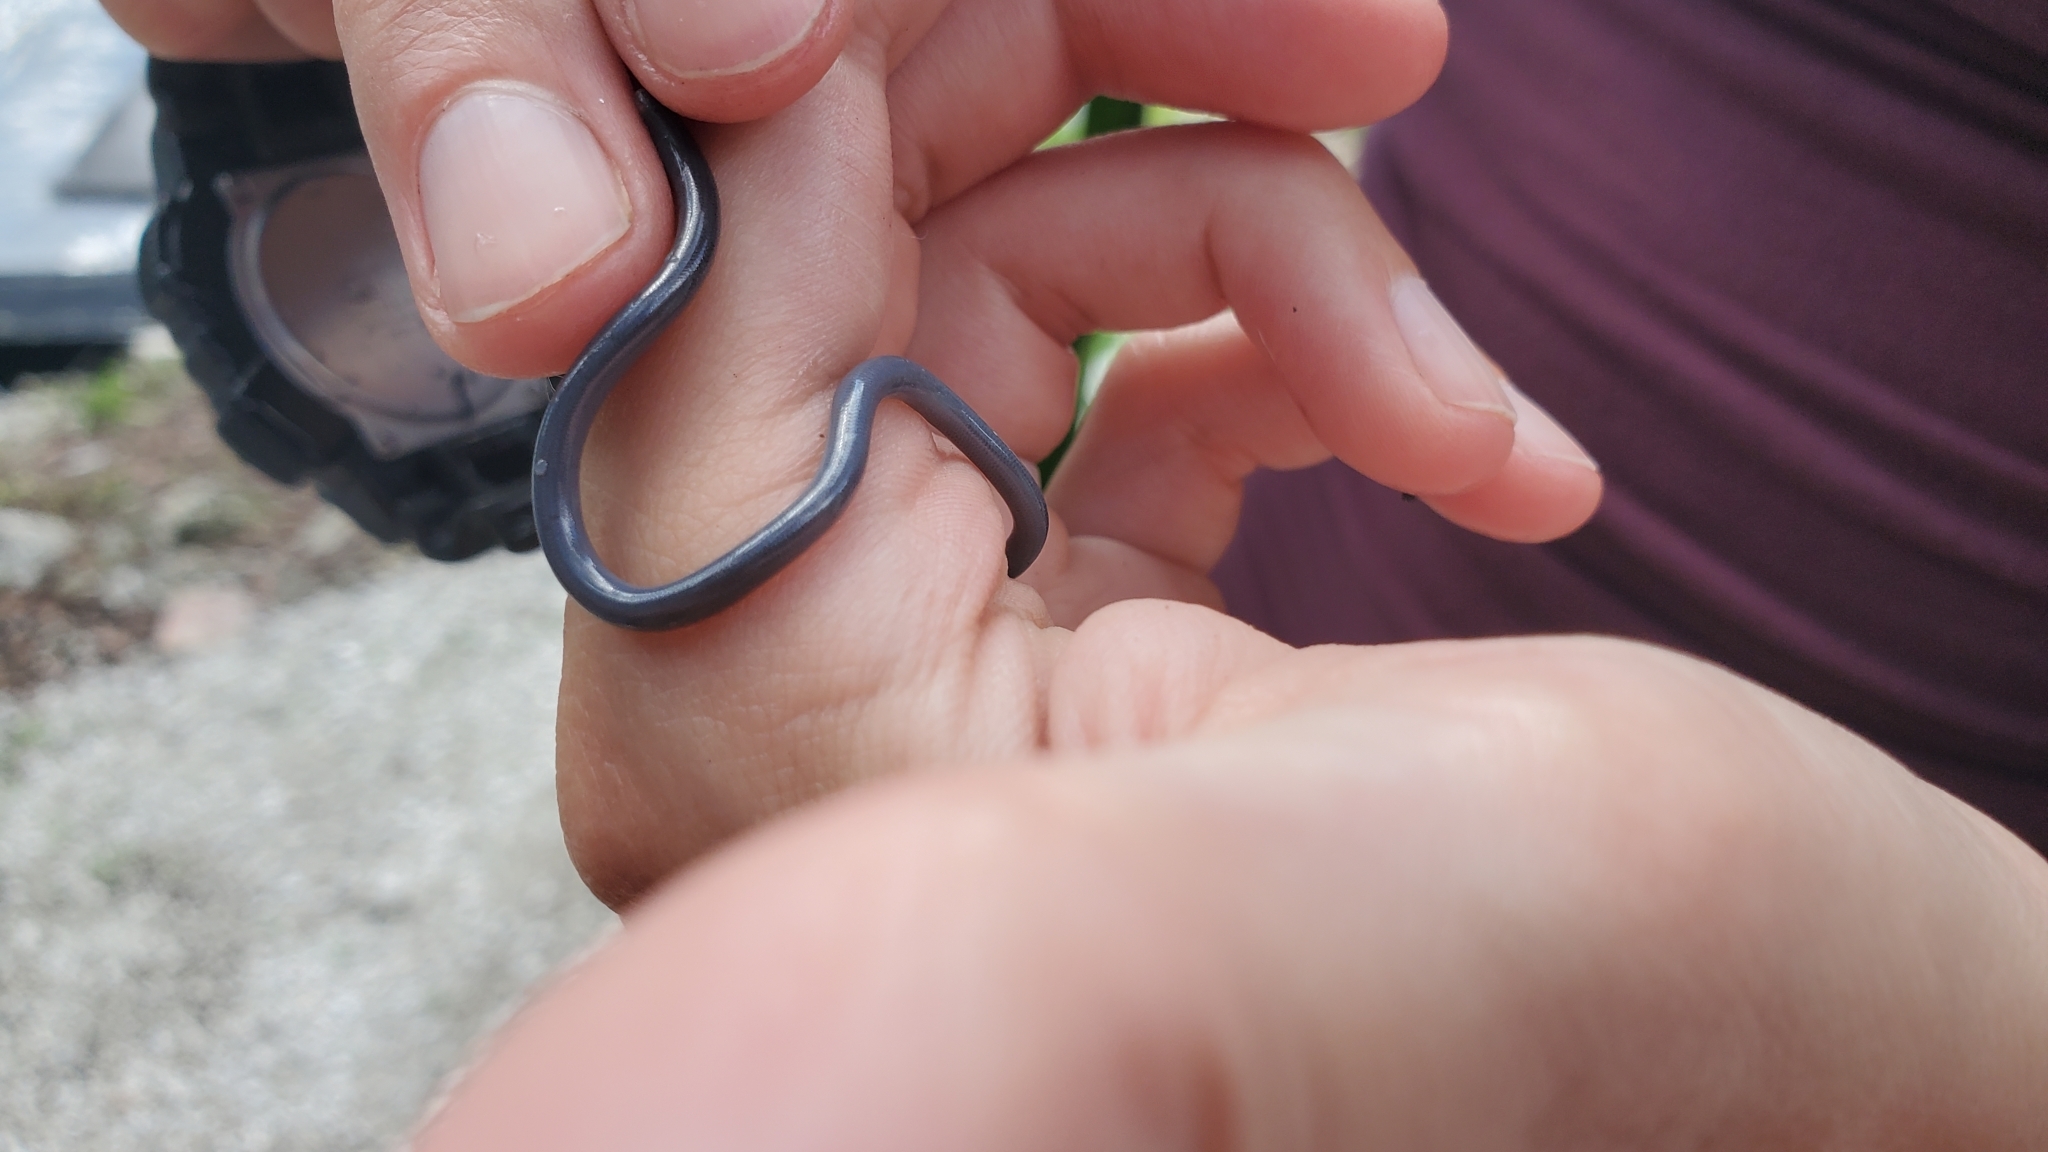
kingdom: Animalia
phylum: Chordata
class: Squamata
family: Typhlopidae
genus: Indotyphlops
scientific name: Indotyphlops braminus
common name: Brahminy blindsnake
